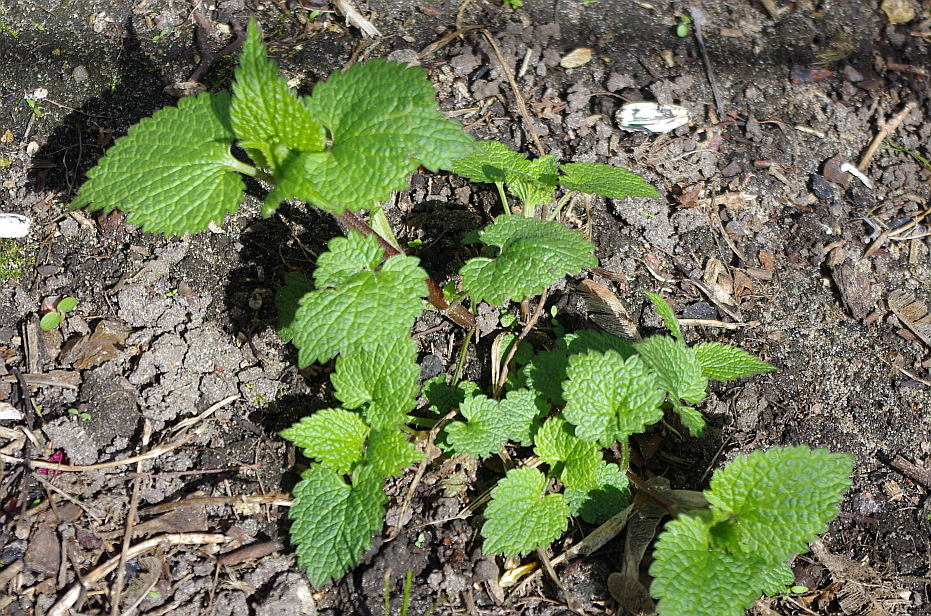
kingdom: Plantae
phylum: Tracheophyta
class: Magnoliopsida
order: Lamiales
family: Lamiaceae
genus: Lamium
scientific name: Lamium album
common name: White dead-nettle
